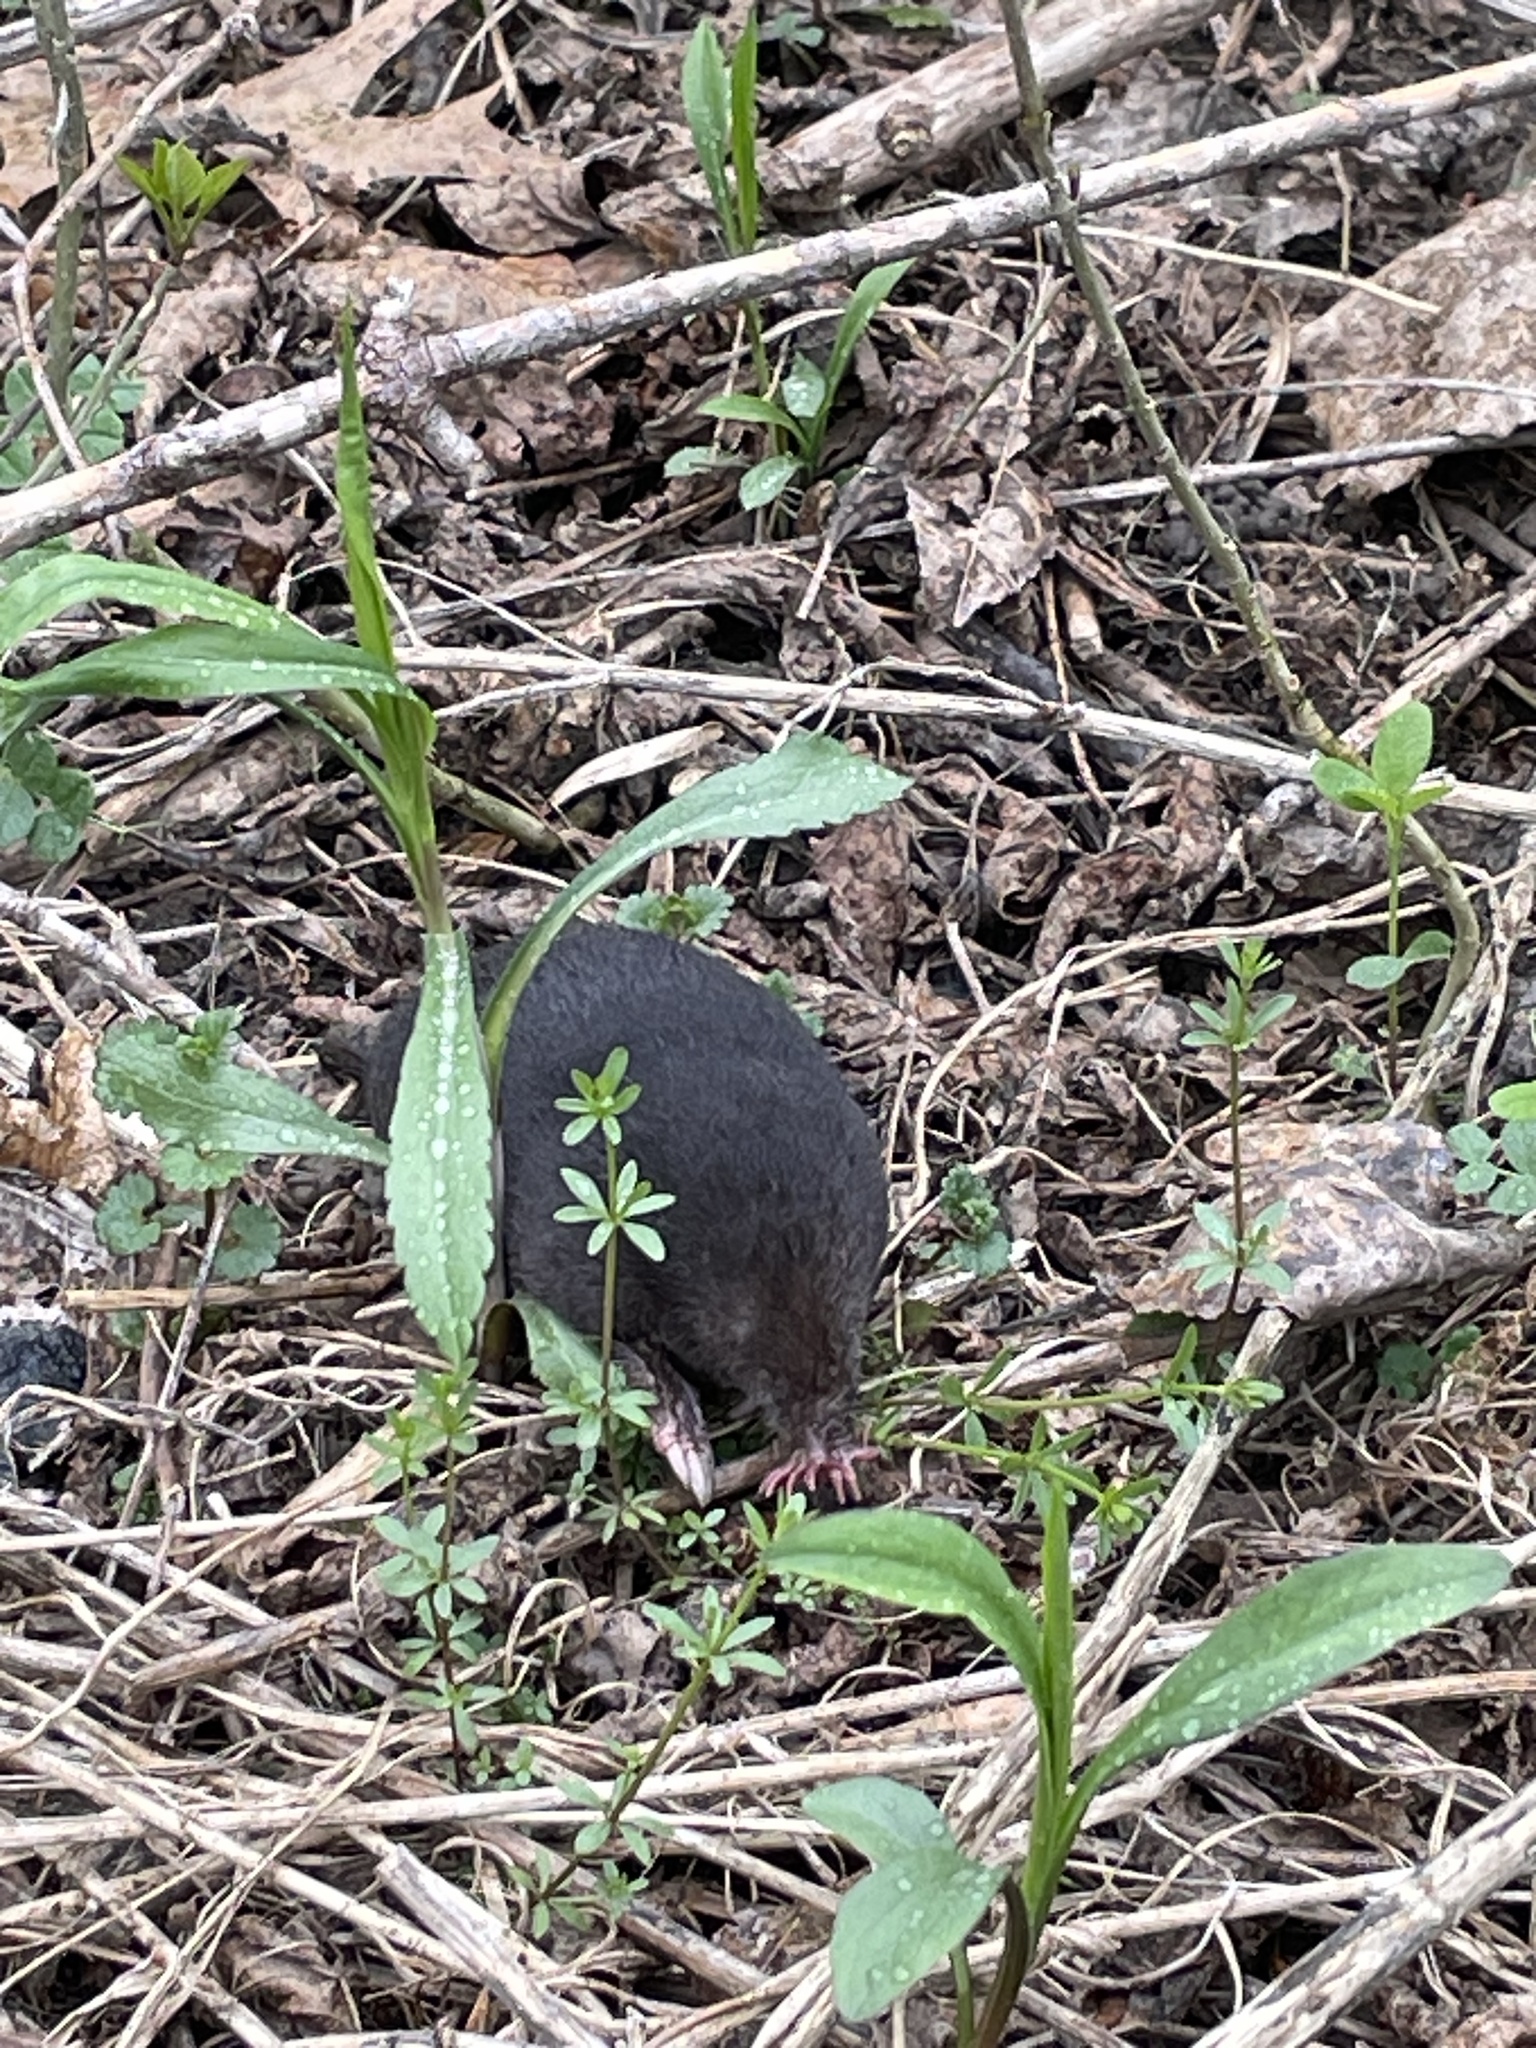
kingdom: Animalia
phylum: Chordata
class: Mammalia
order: Soricomorpha
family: Talpidae
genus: Condylura
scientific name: Condylura cristata
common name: Star-nosed mole
